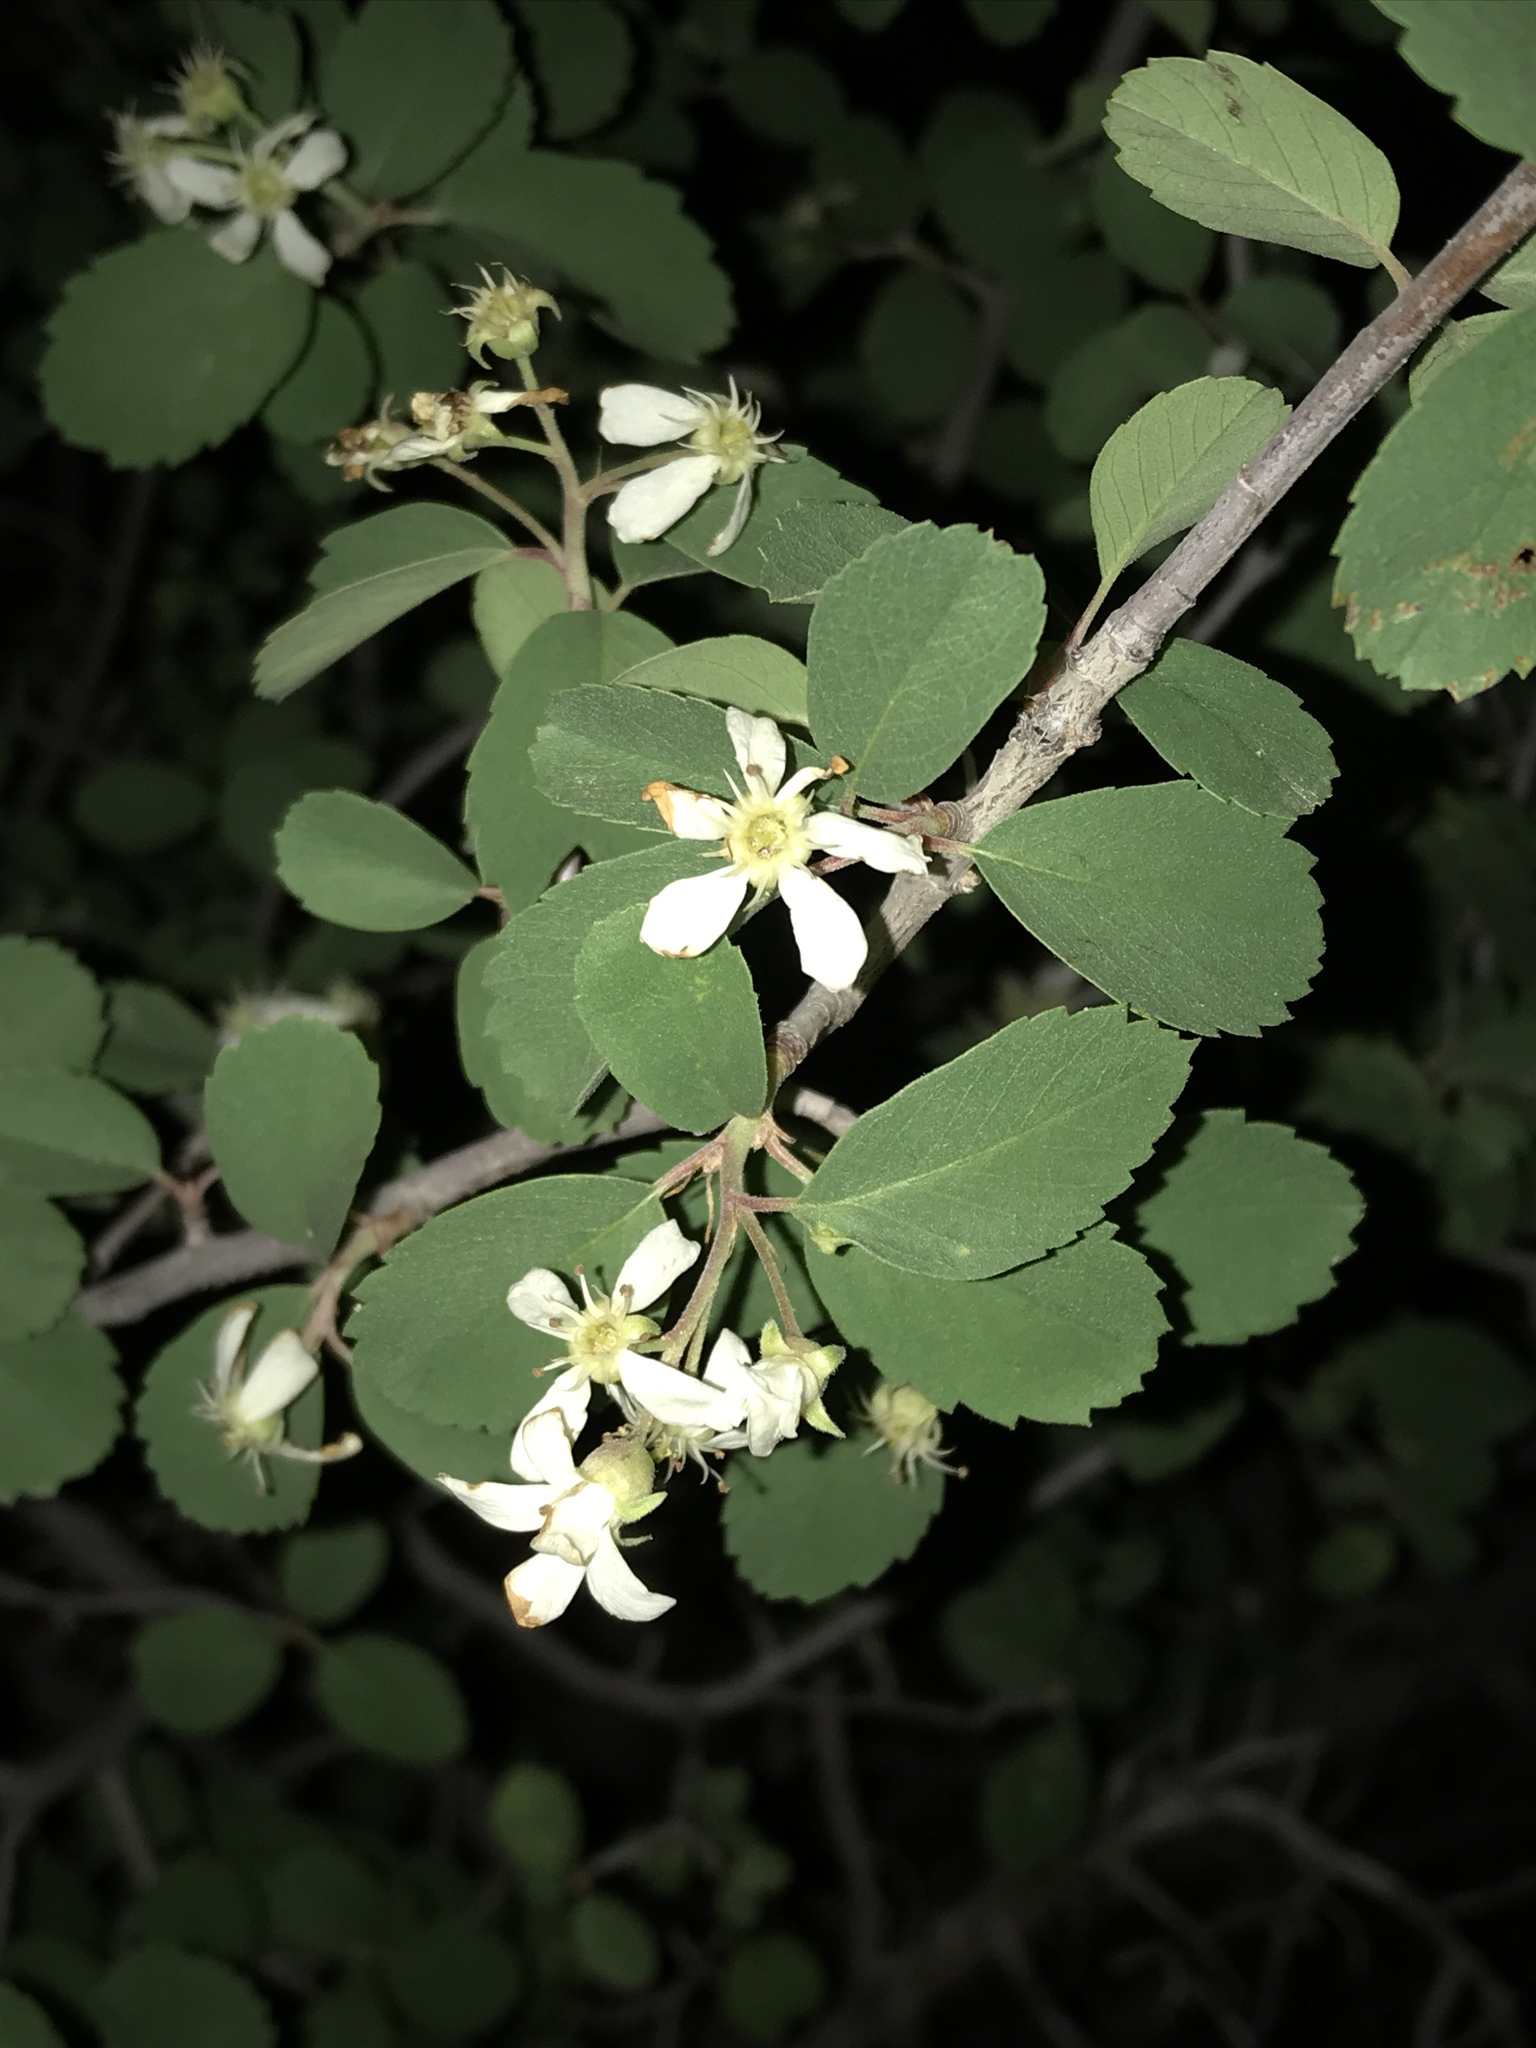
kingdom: Plantae
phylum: Tracheophyta
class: Magnoliopsida
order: Rosales
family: Rosaceae
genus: Amelanchier
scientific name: Amelanchier utahensis
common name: Utah serviceberry
